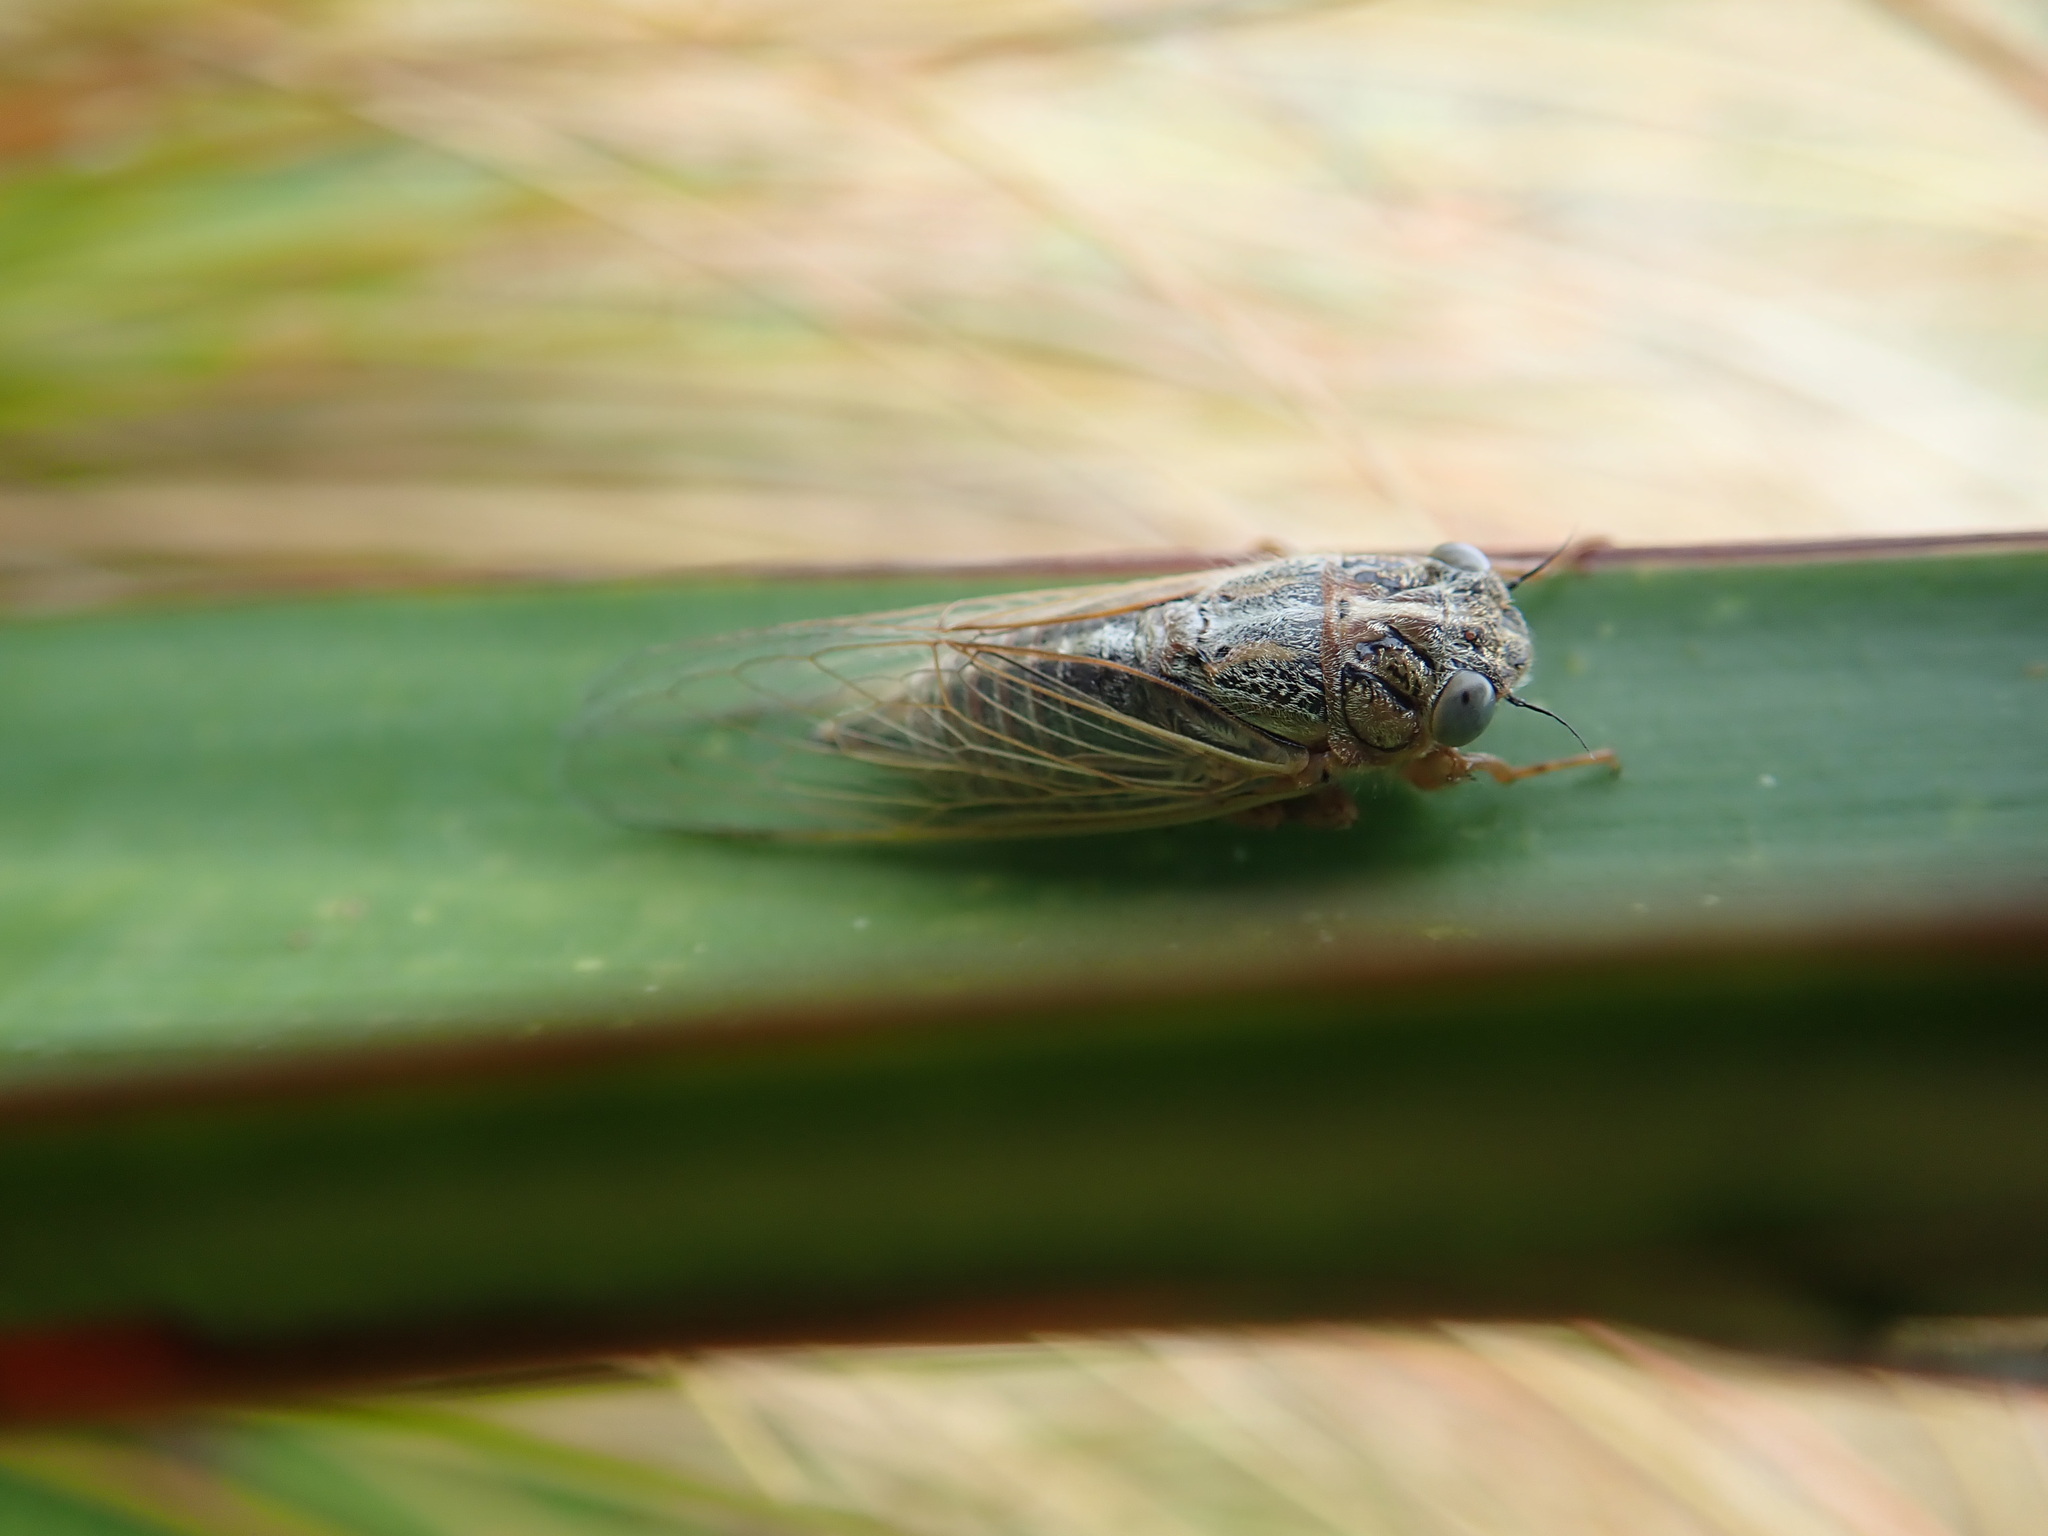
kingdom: Animalia
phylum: Arthropoda
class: Insecta
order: Hemiptera
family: Cicadidae
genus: Rhodopsalta
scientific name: Rhodopsalta leptomera
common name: Sand dune redtail cicada
